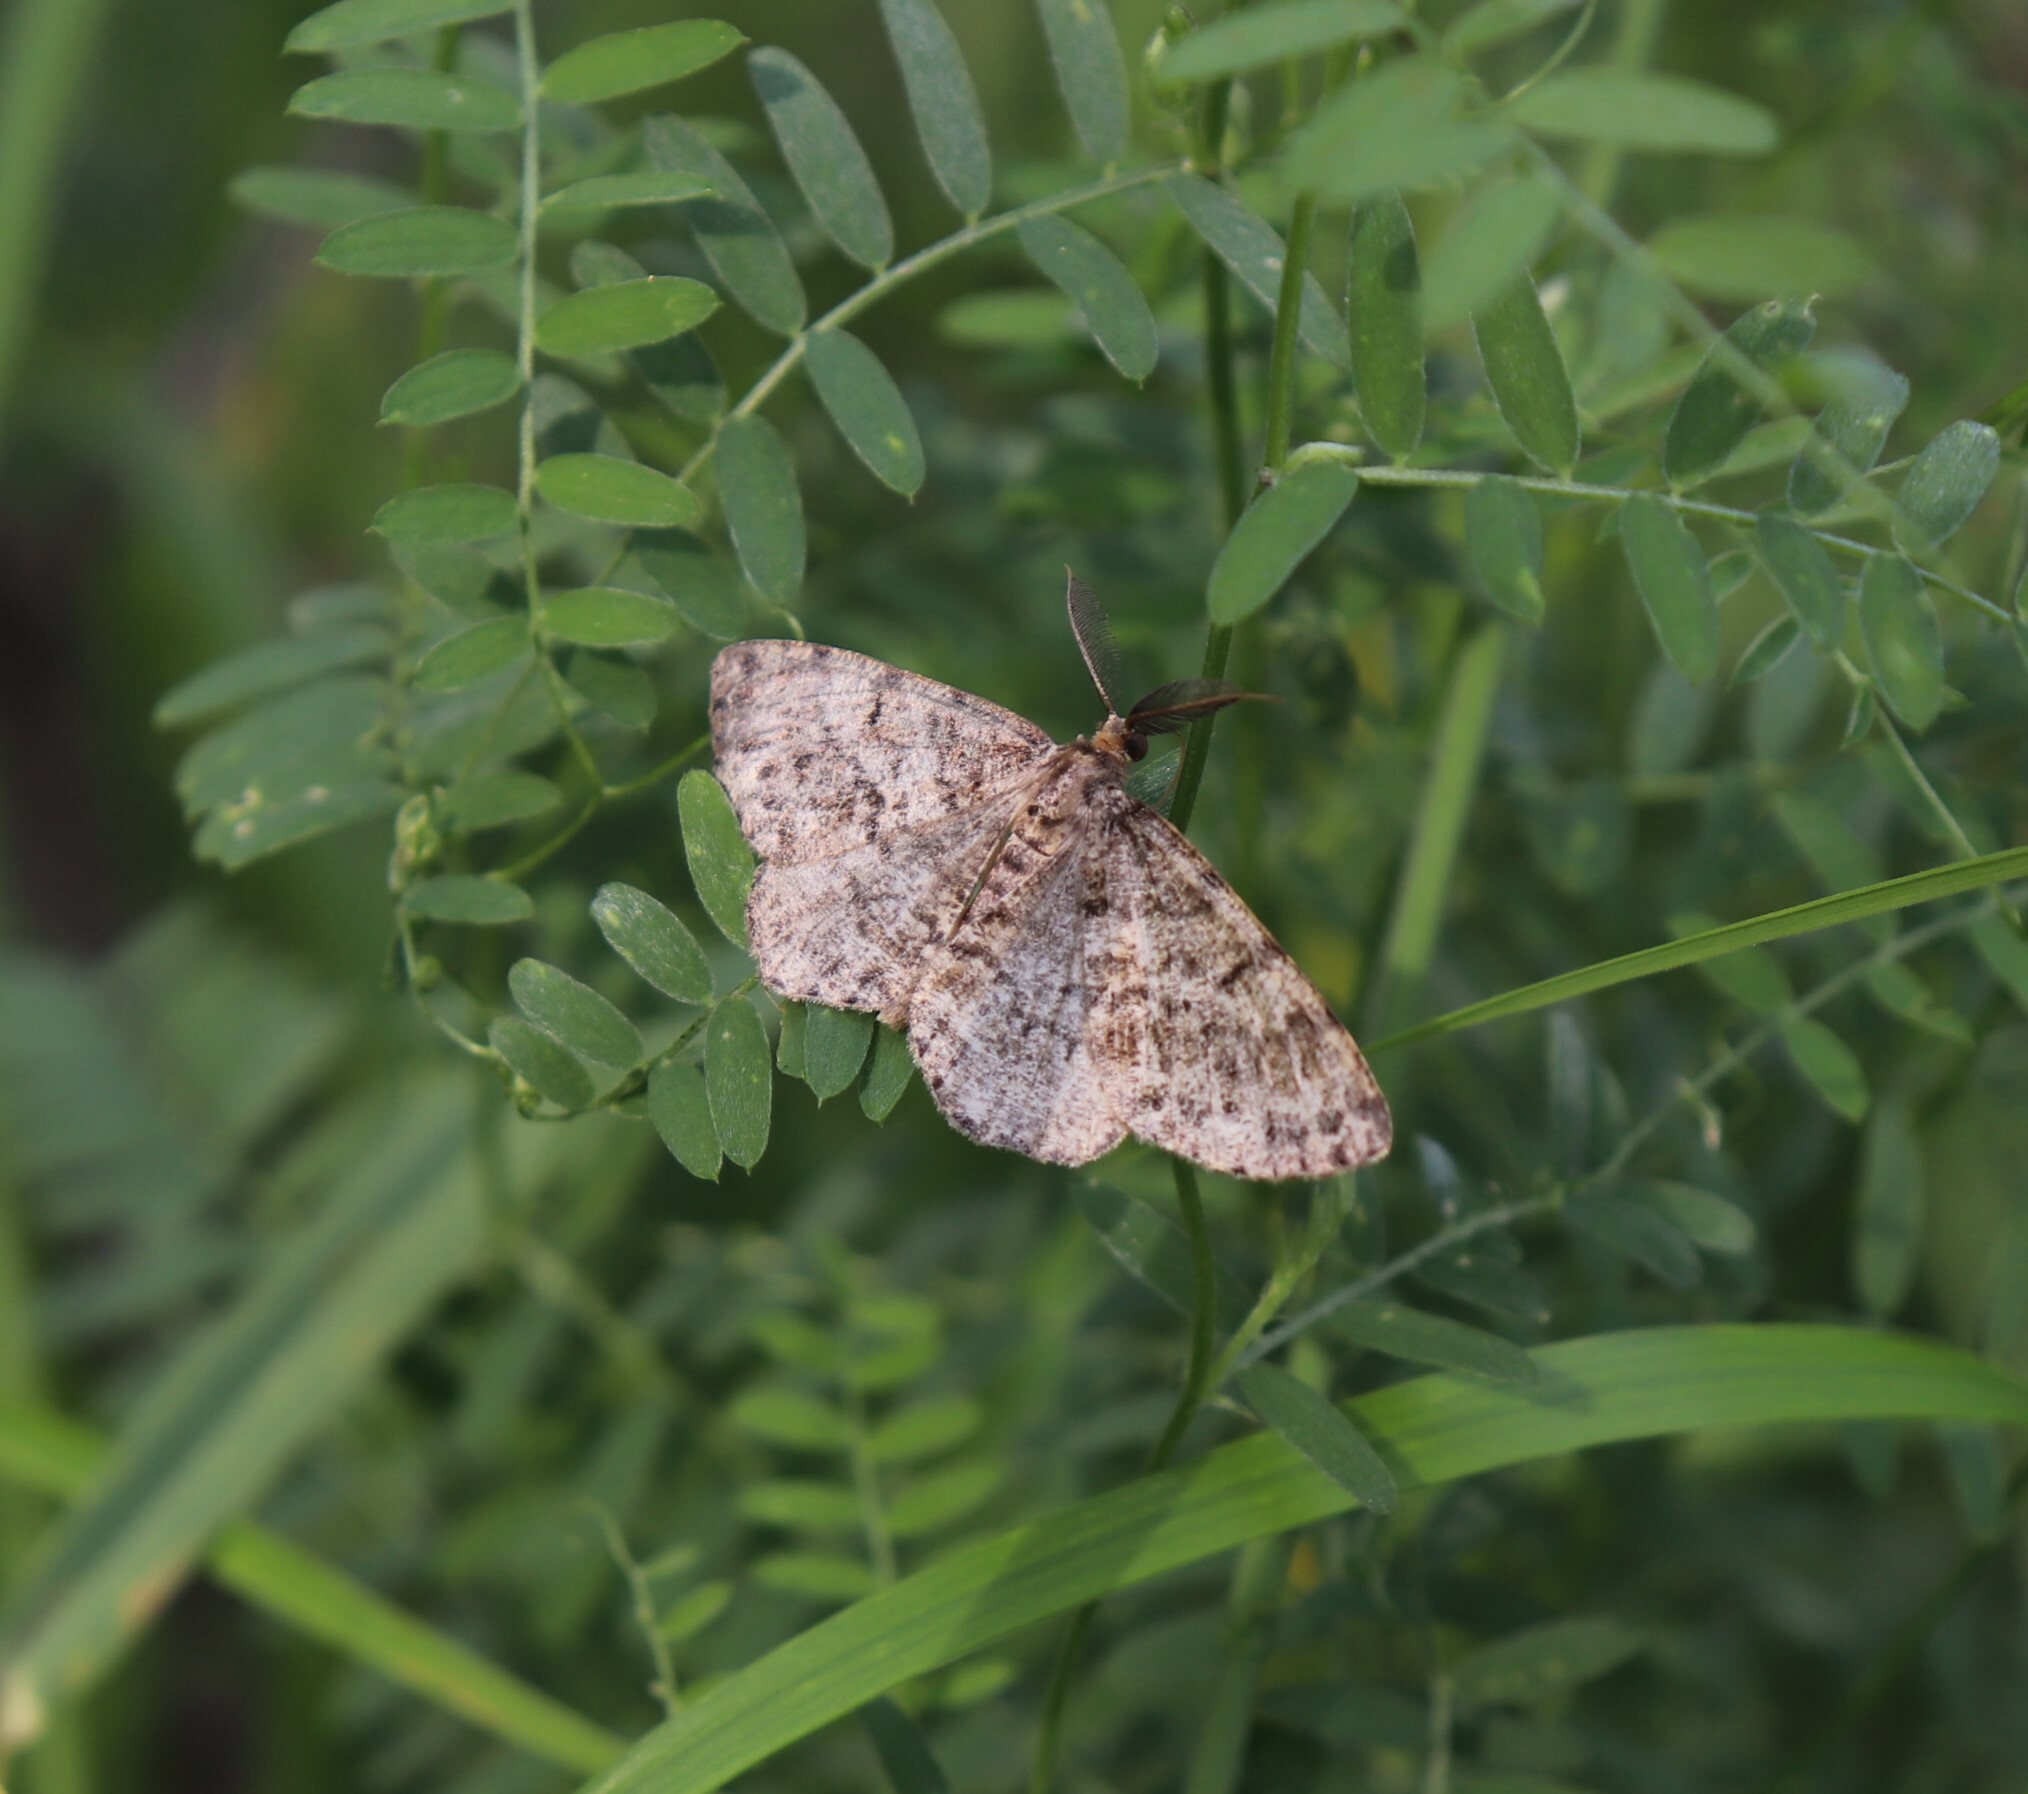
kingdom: Animalia
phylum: Arthropoda
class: Insecta
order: Lepidoptera
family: Geometridae
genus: Deileptenia
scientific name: Deileptenia ribeata
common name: Satin beauty
